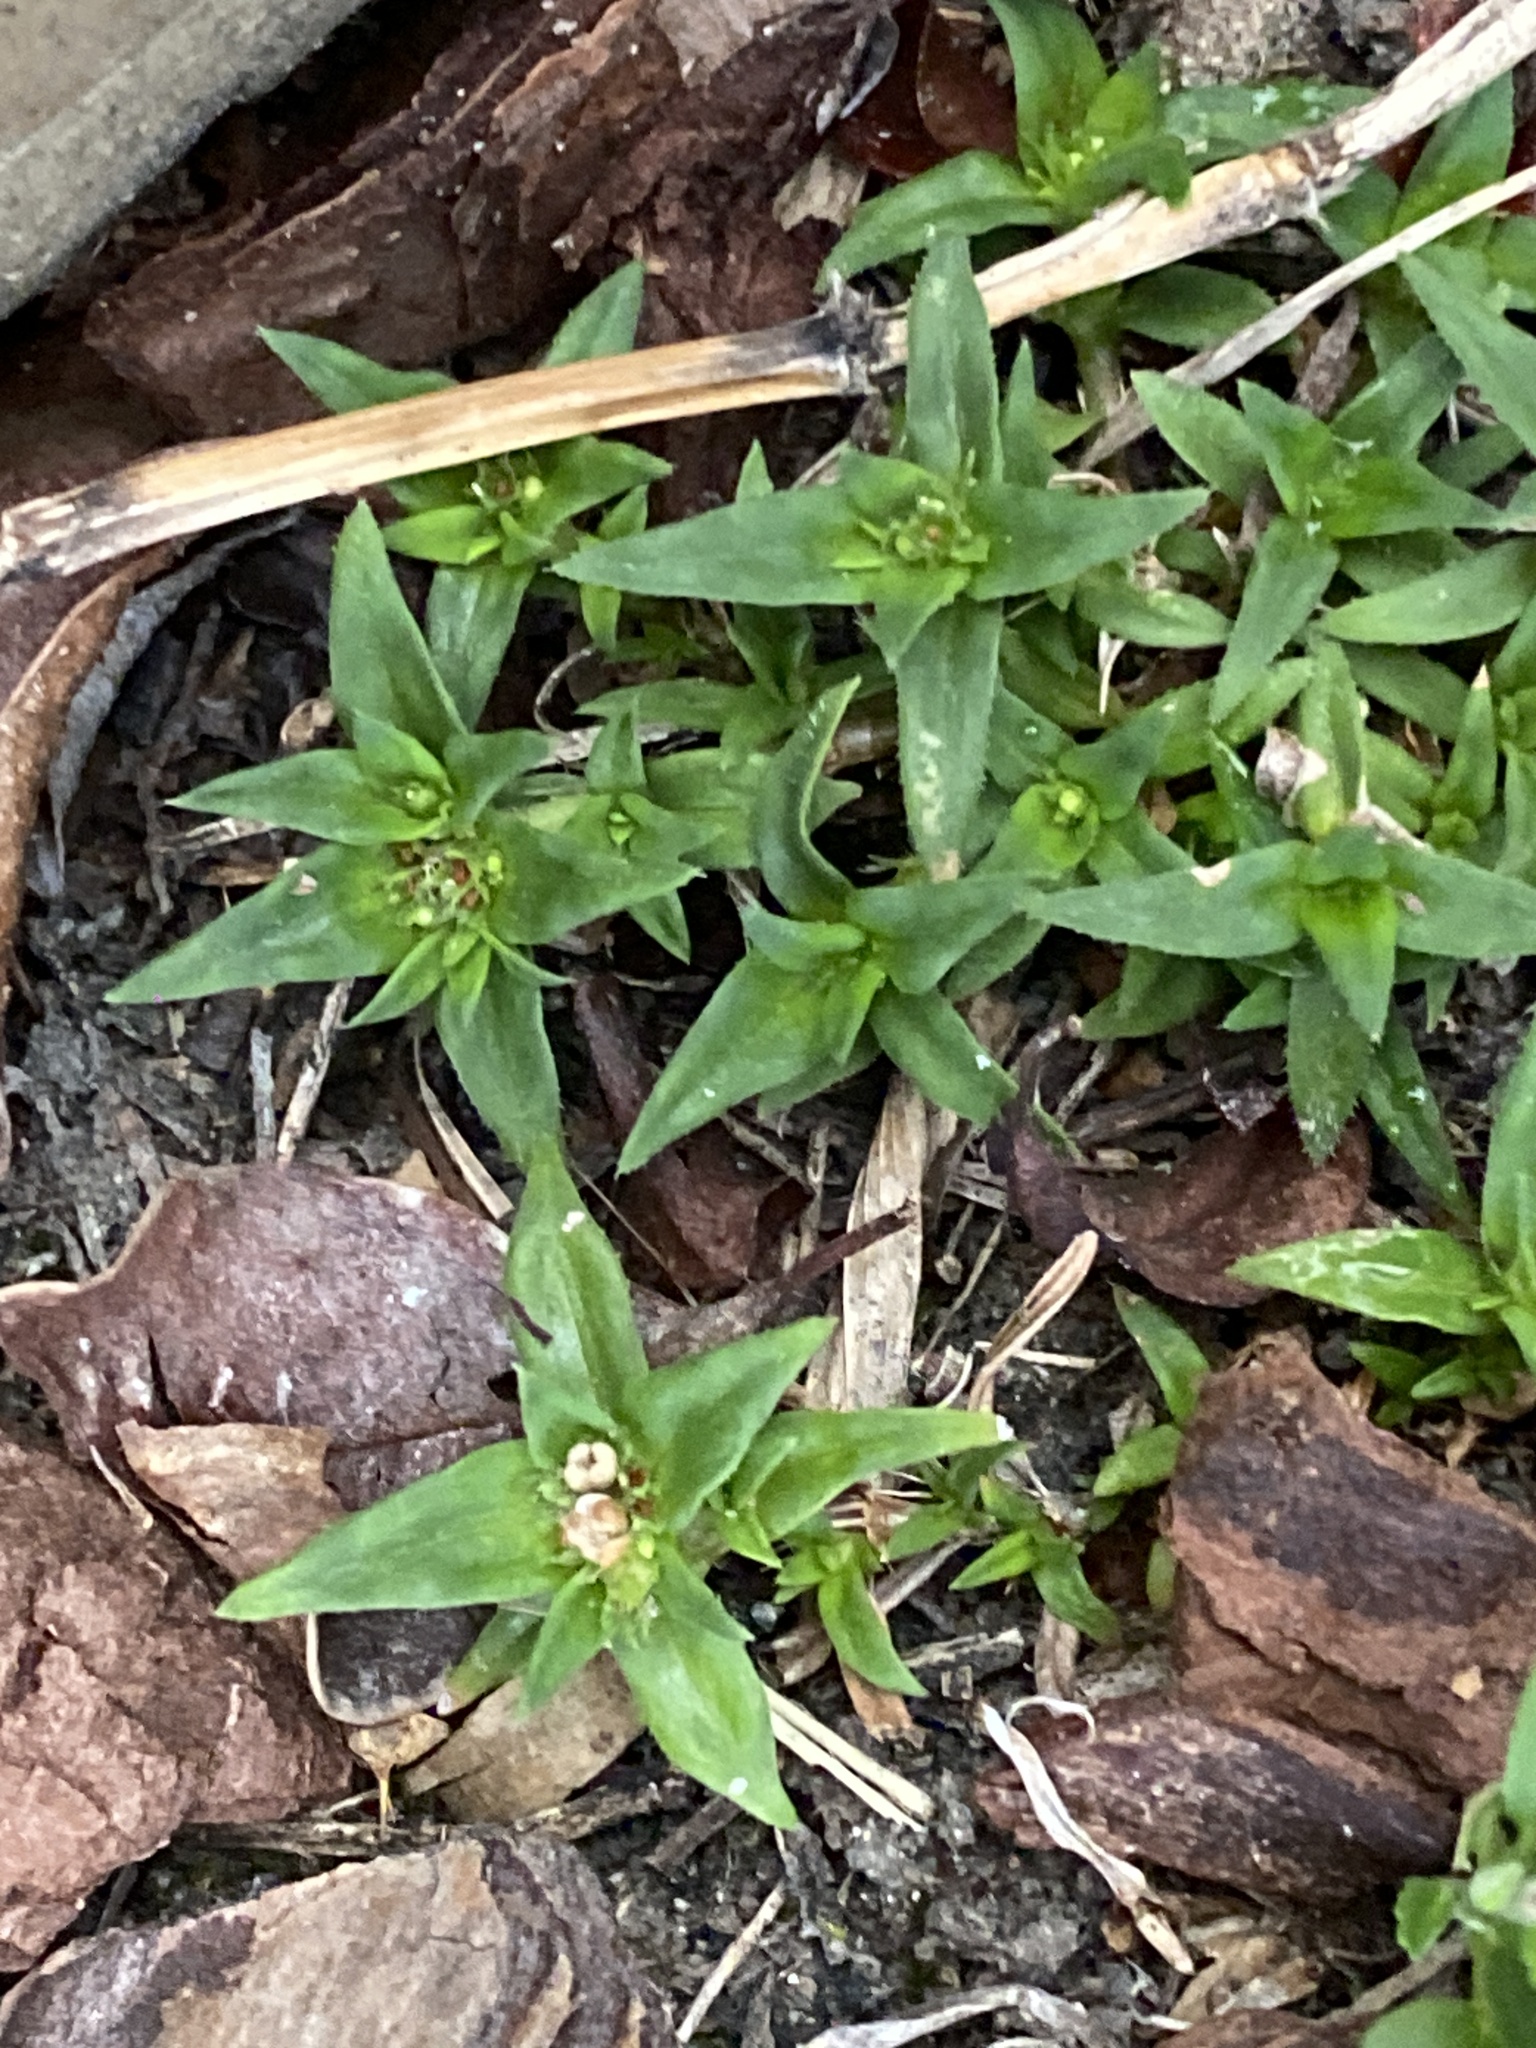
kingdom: Plantae
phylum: Tracheophyta
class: Magnoliopsida
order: Gentianales
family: Rubiaceae
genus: Richardia
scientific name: Richardia stellaris
